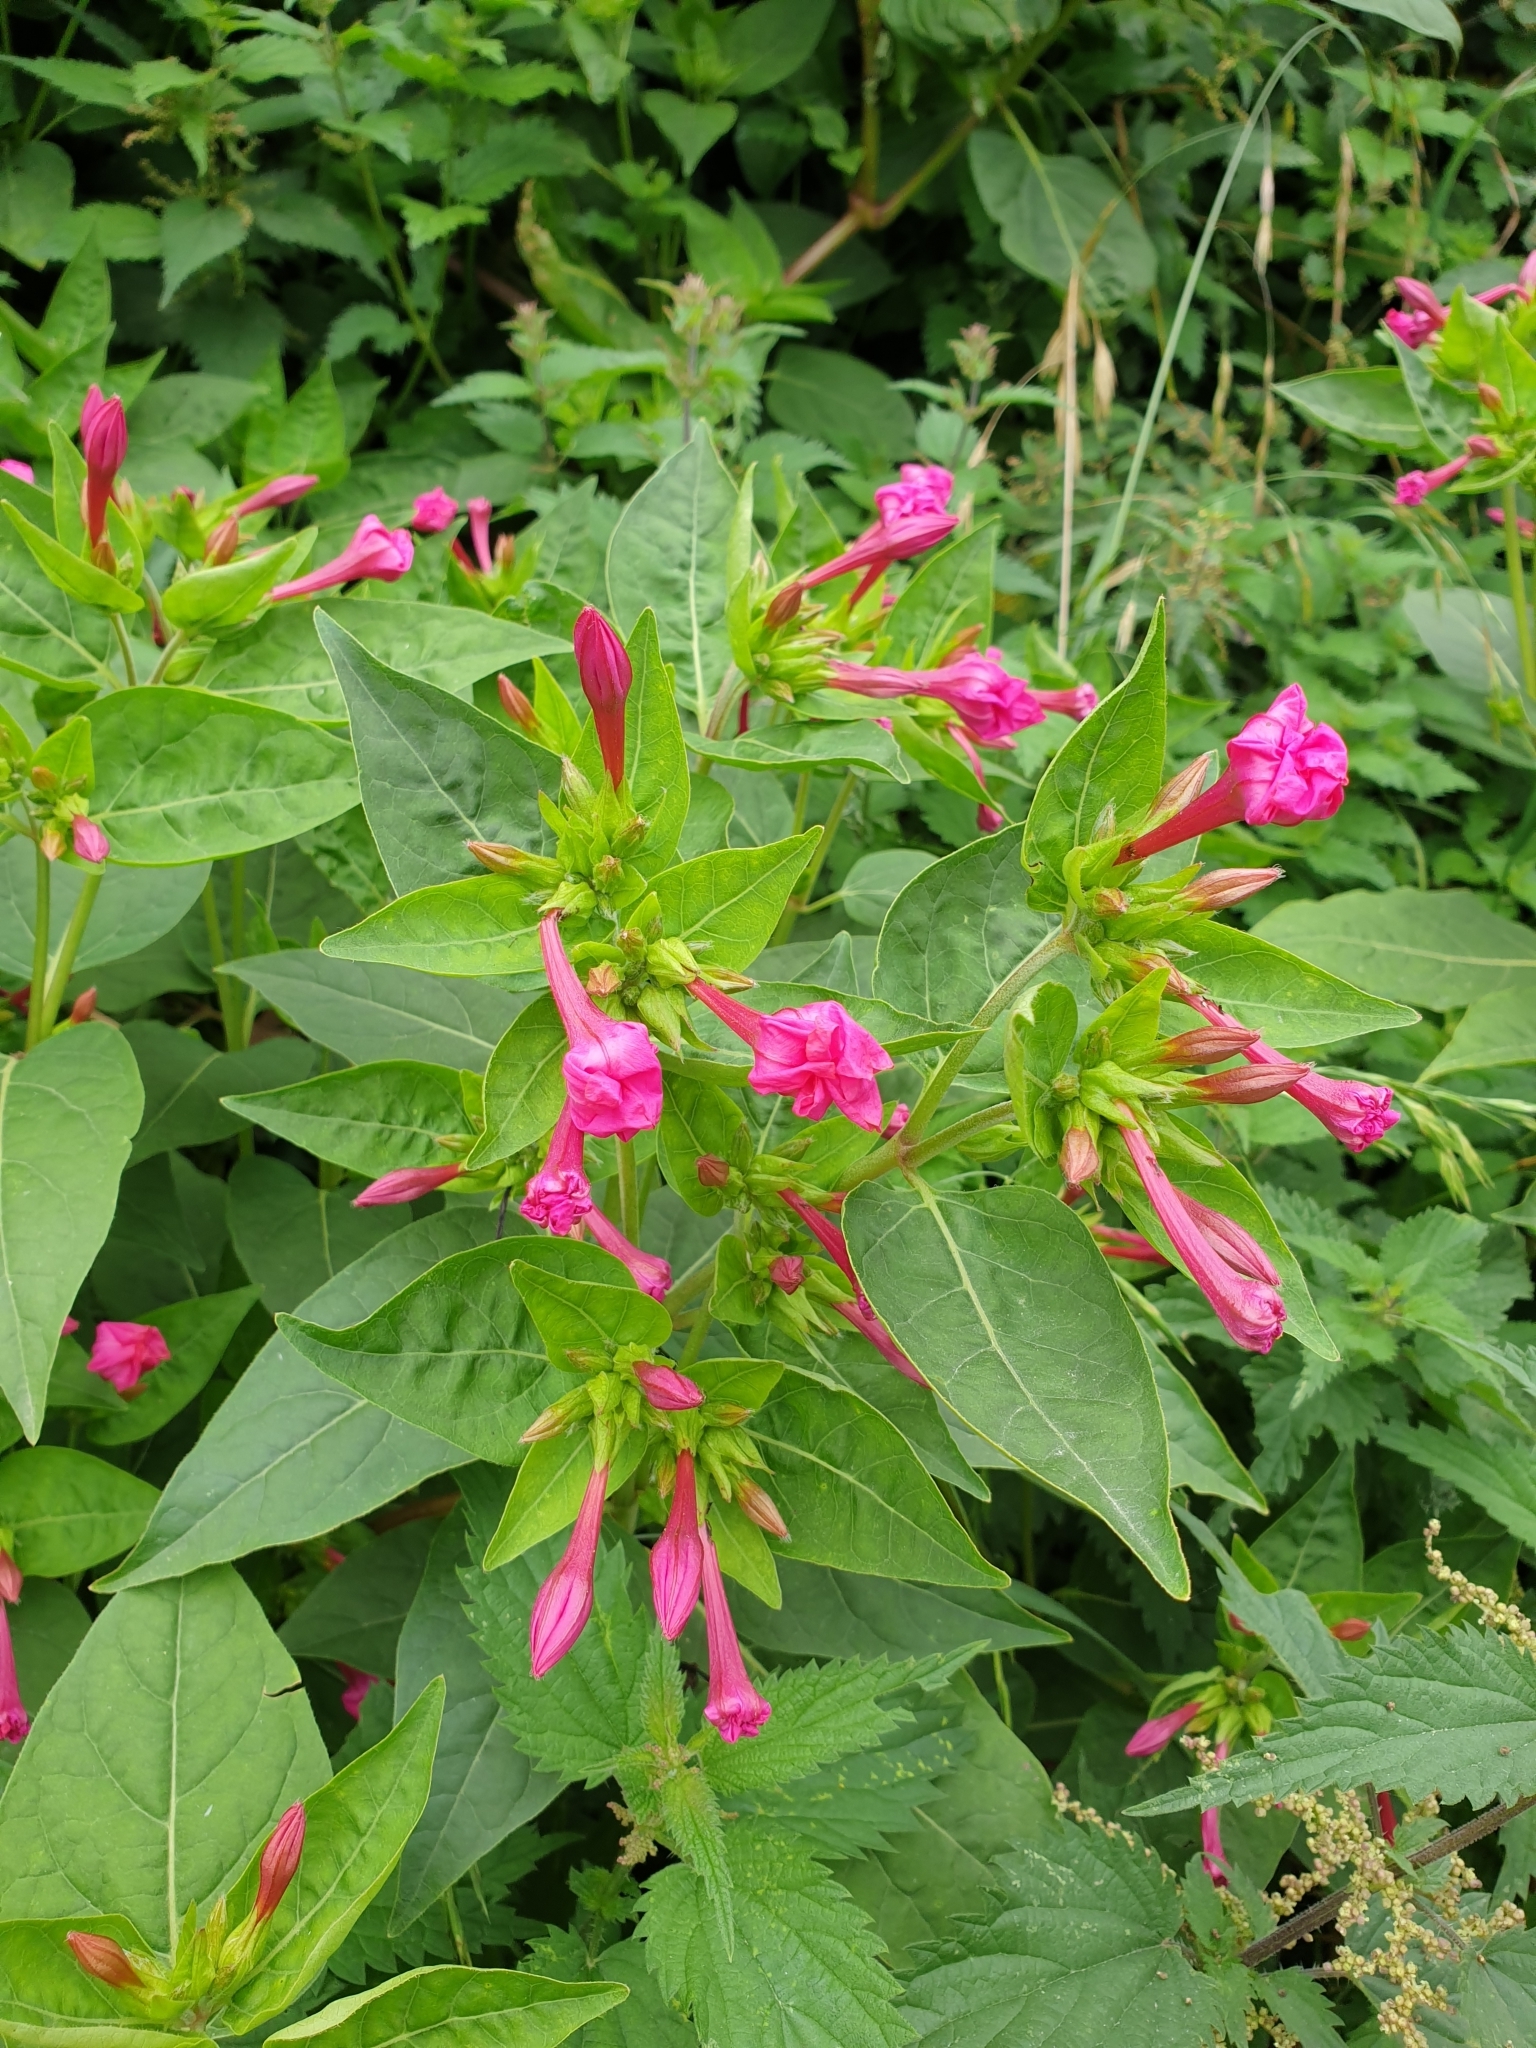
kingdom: Plantae
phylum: Tracheophyta
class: Magnoliopsida
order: Caryophyllales
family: Nyctaginaceae
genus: Mirabilis
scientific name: Mirabilis jalapa
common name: Marvel-of-peru
